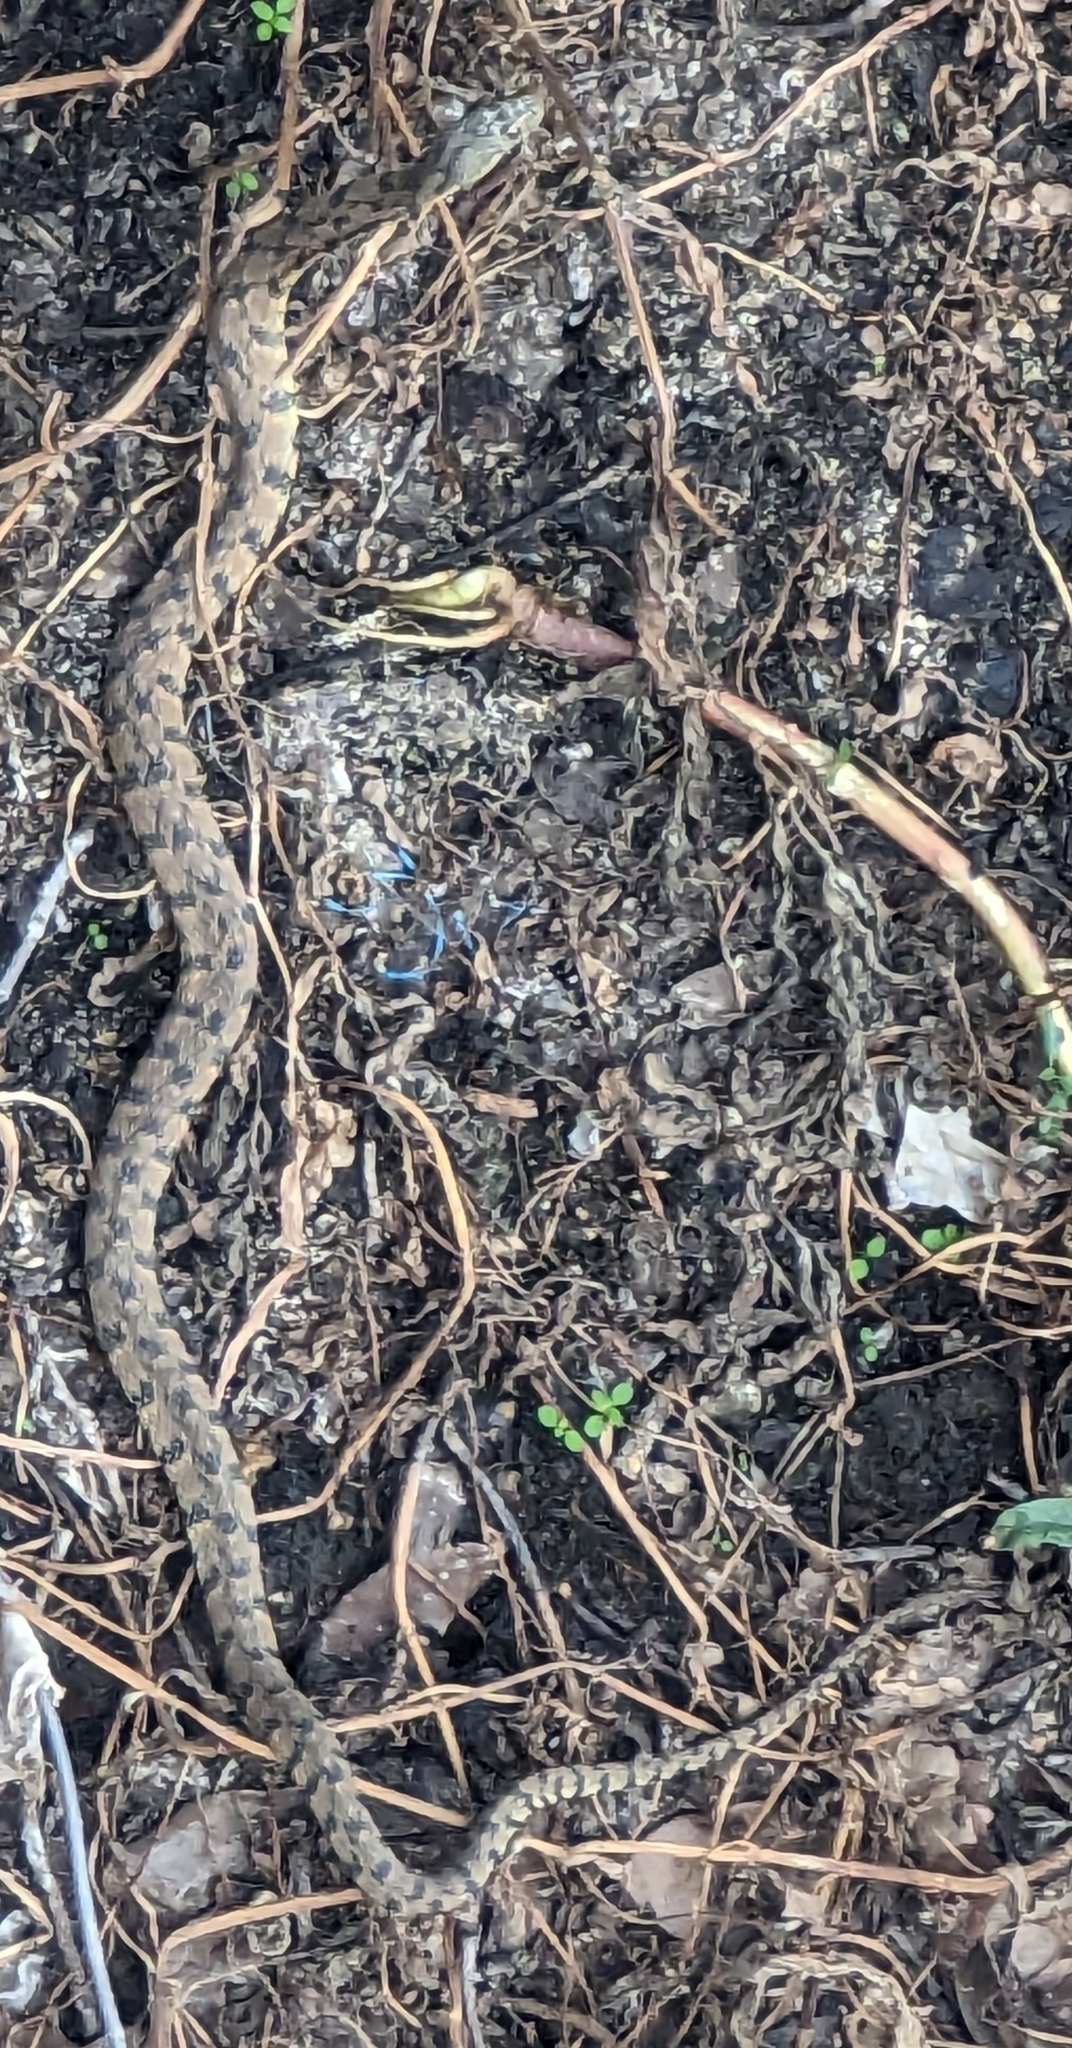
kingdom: Animalia
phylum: Chordata
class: Squamata
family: Colubridae
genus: Nerodia
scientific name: Nerodia rhombifer
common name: Diamondback water snake
